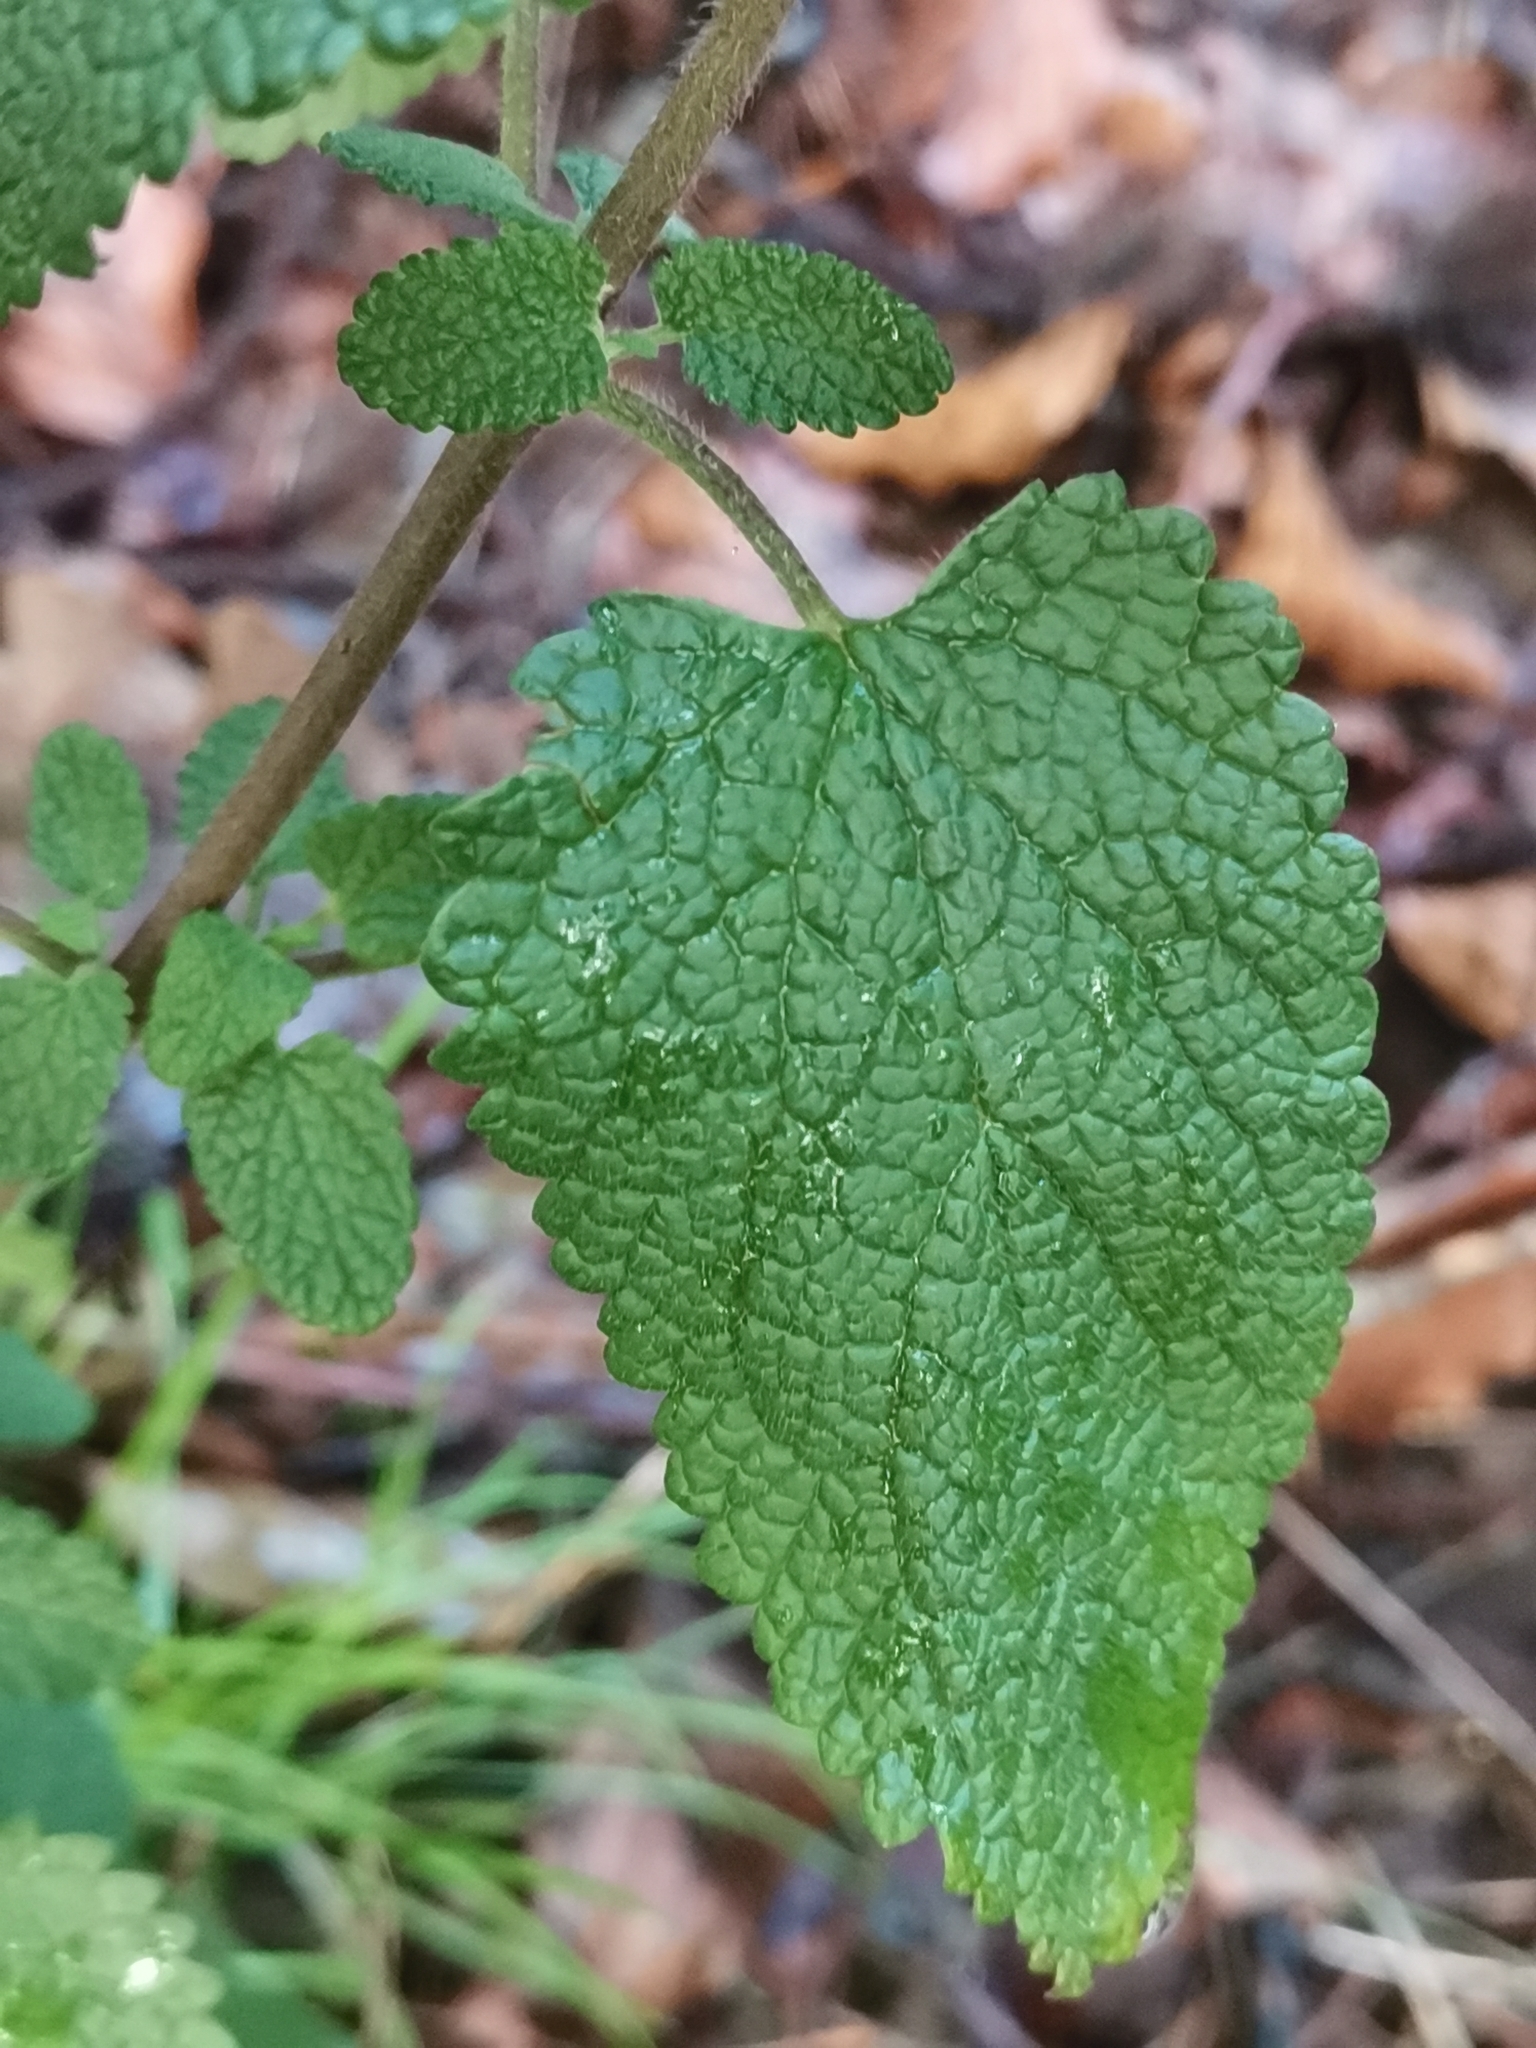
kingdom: Plantae
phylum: Tracheophyta
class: Magnoliopsida
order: Lamiales
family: Lamiaceae
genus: Teucrium
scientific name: Teucrium scorodonia
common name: Woodland germander
